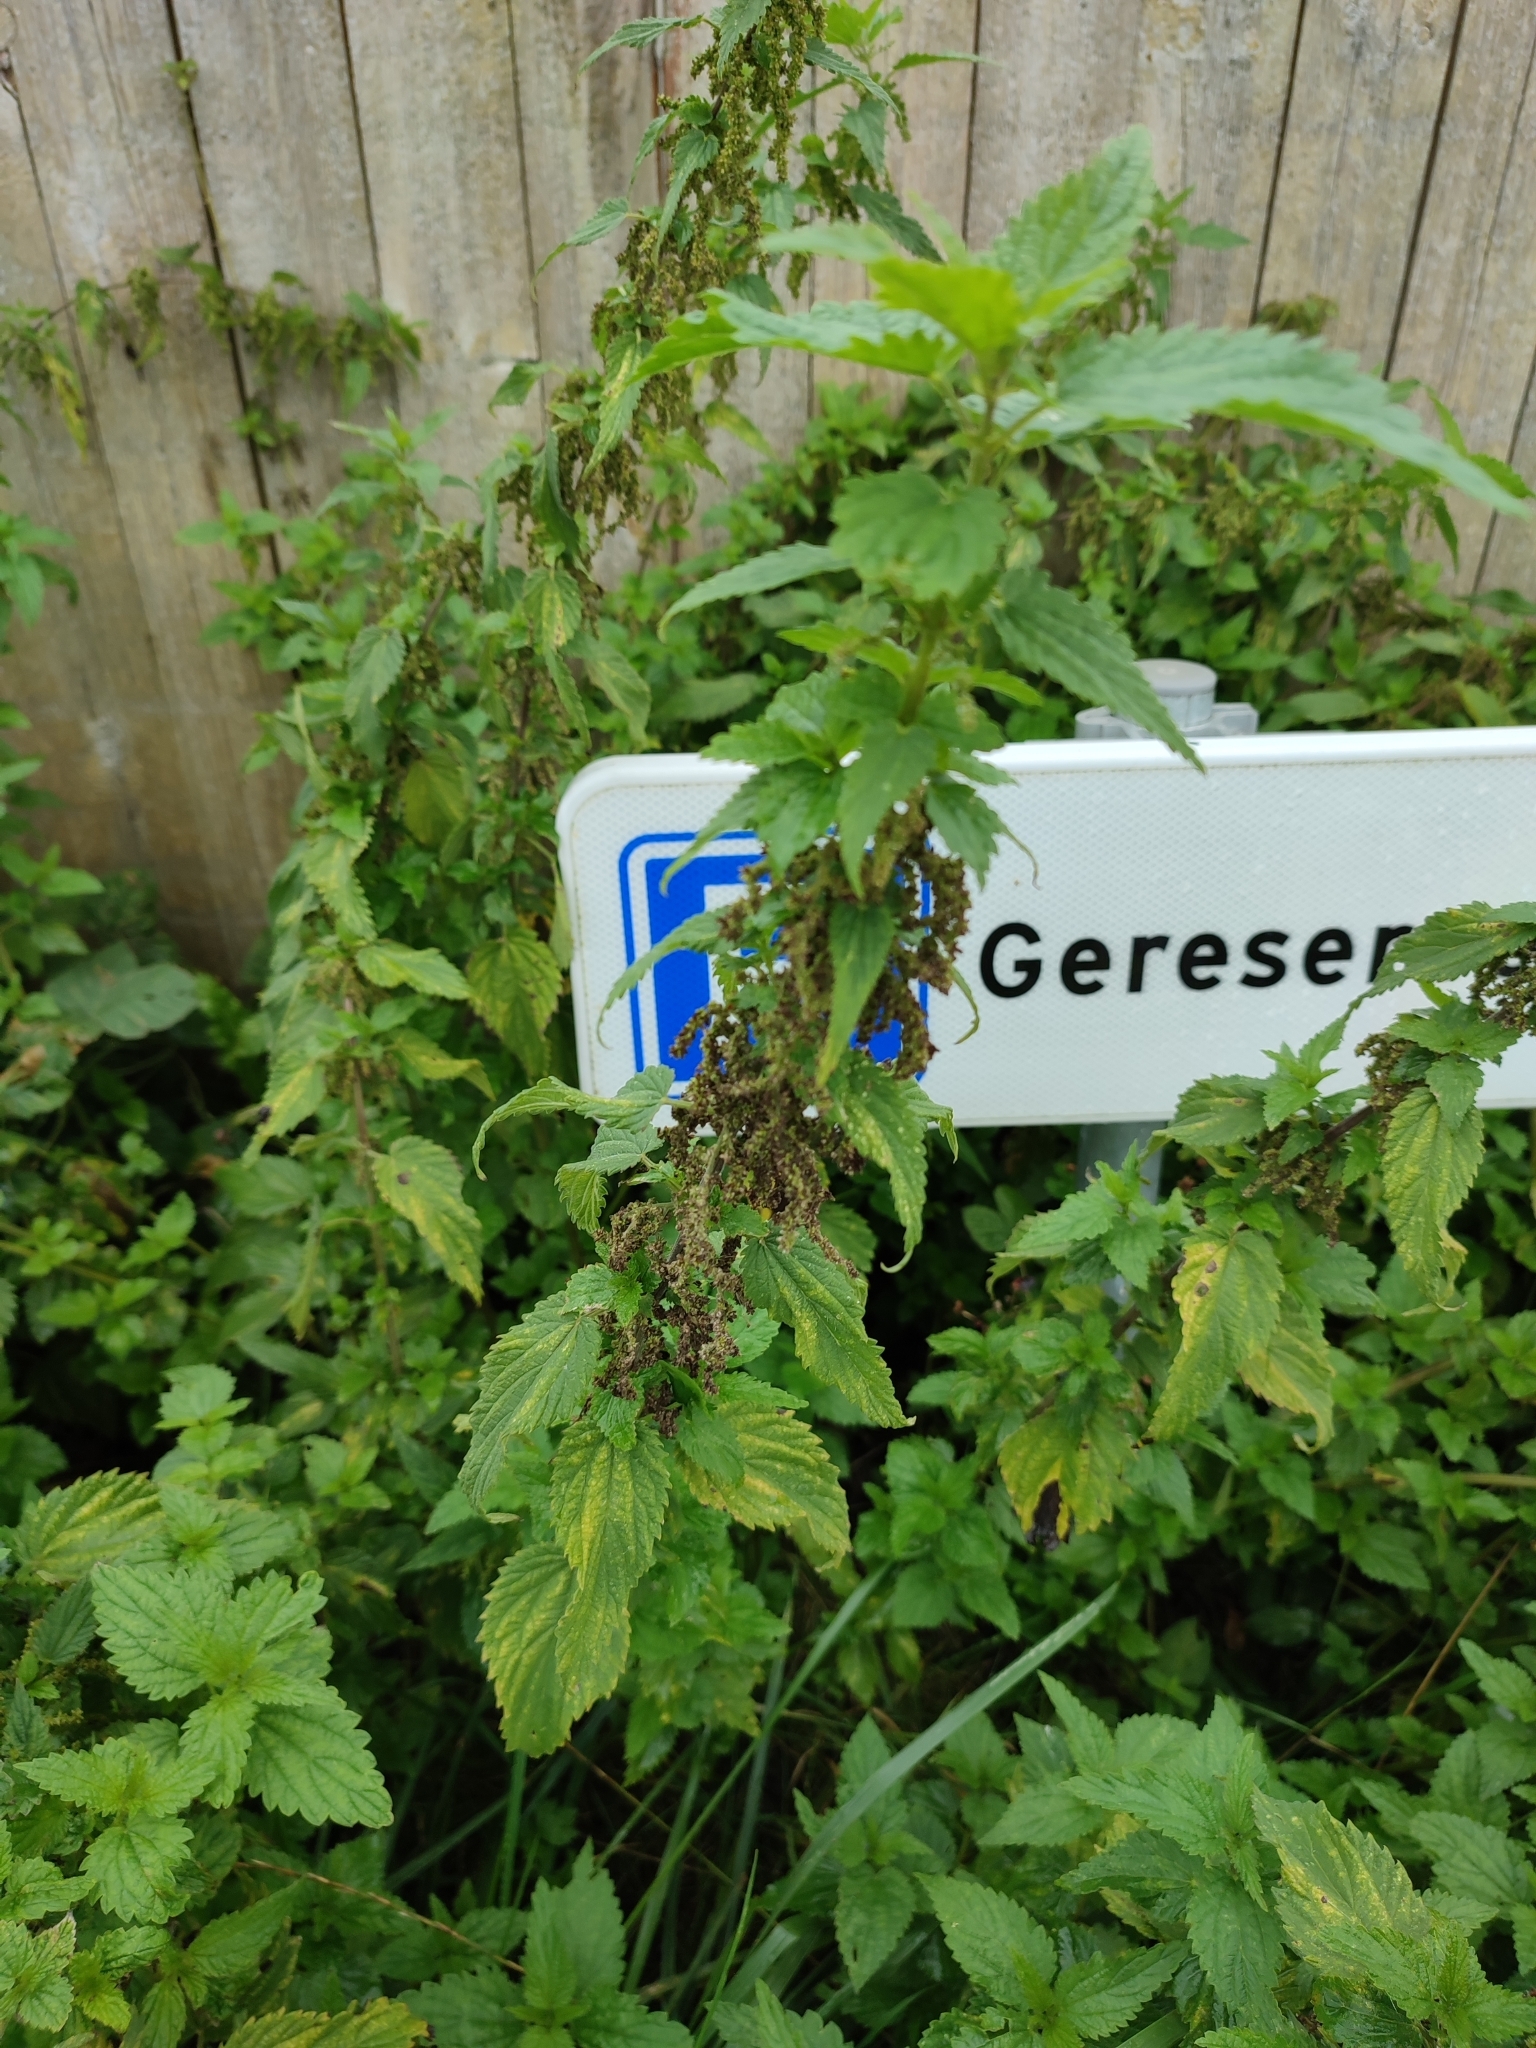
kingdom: Plantae
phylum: Tracheophyta
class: Magnoliopsida
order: Rosales
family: Urticaceae
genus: Urtica
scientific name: Urtica dioica
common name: Common nettle
